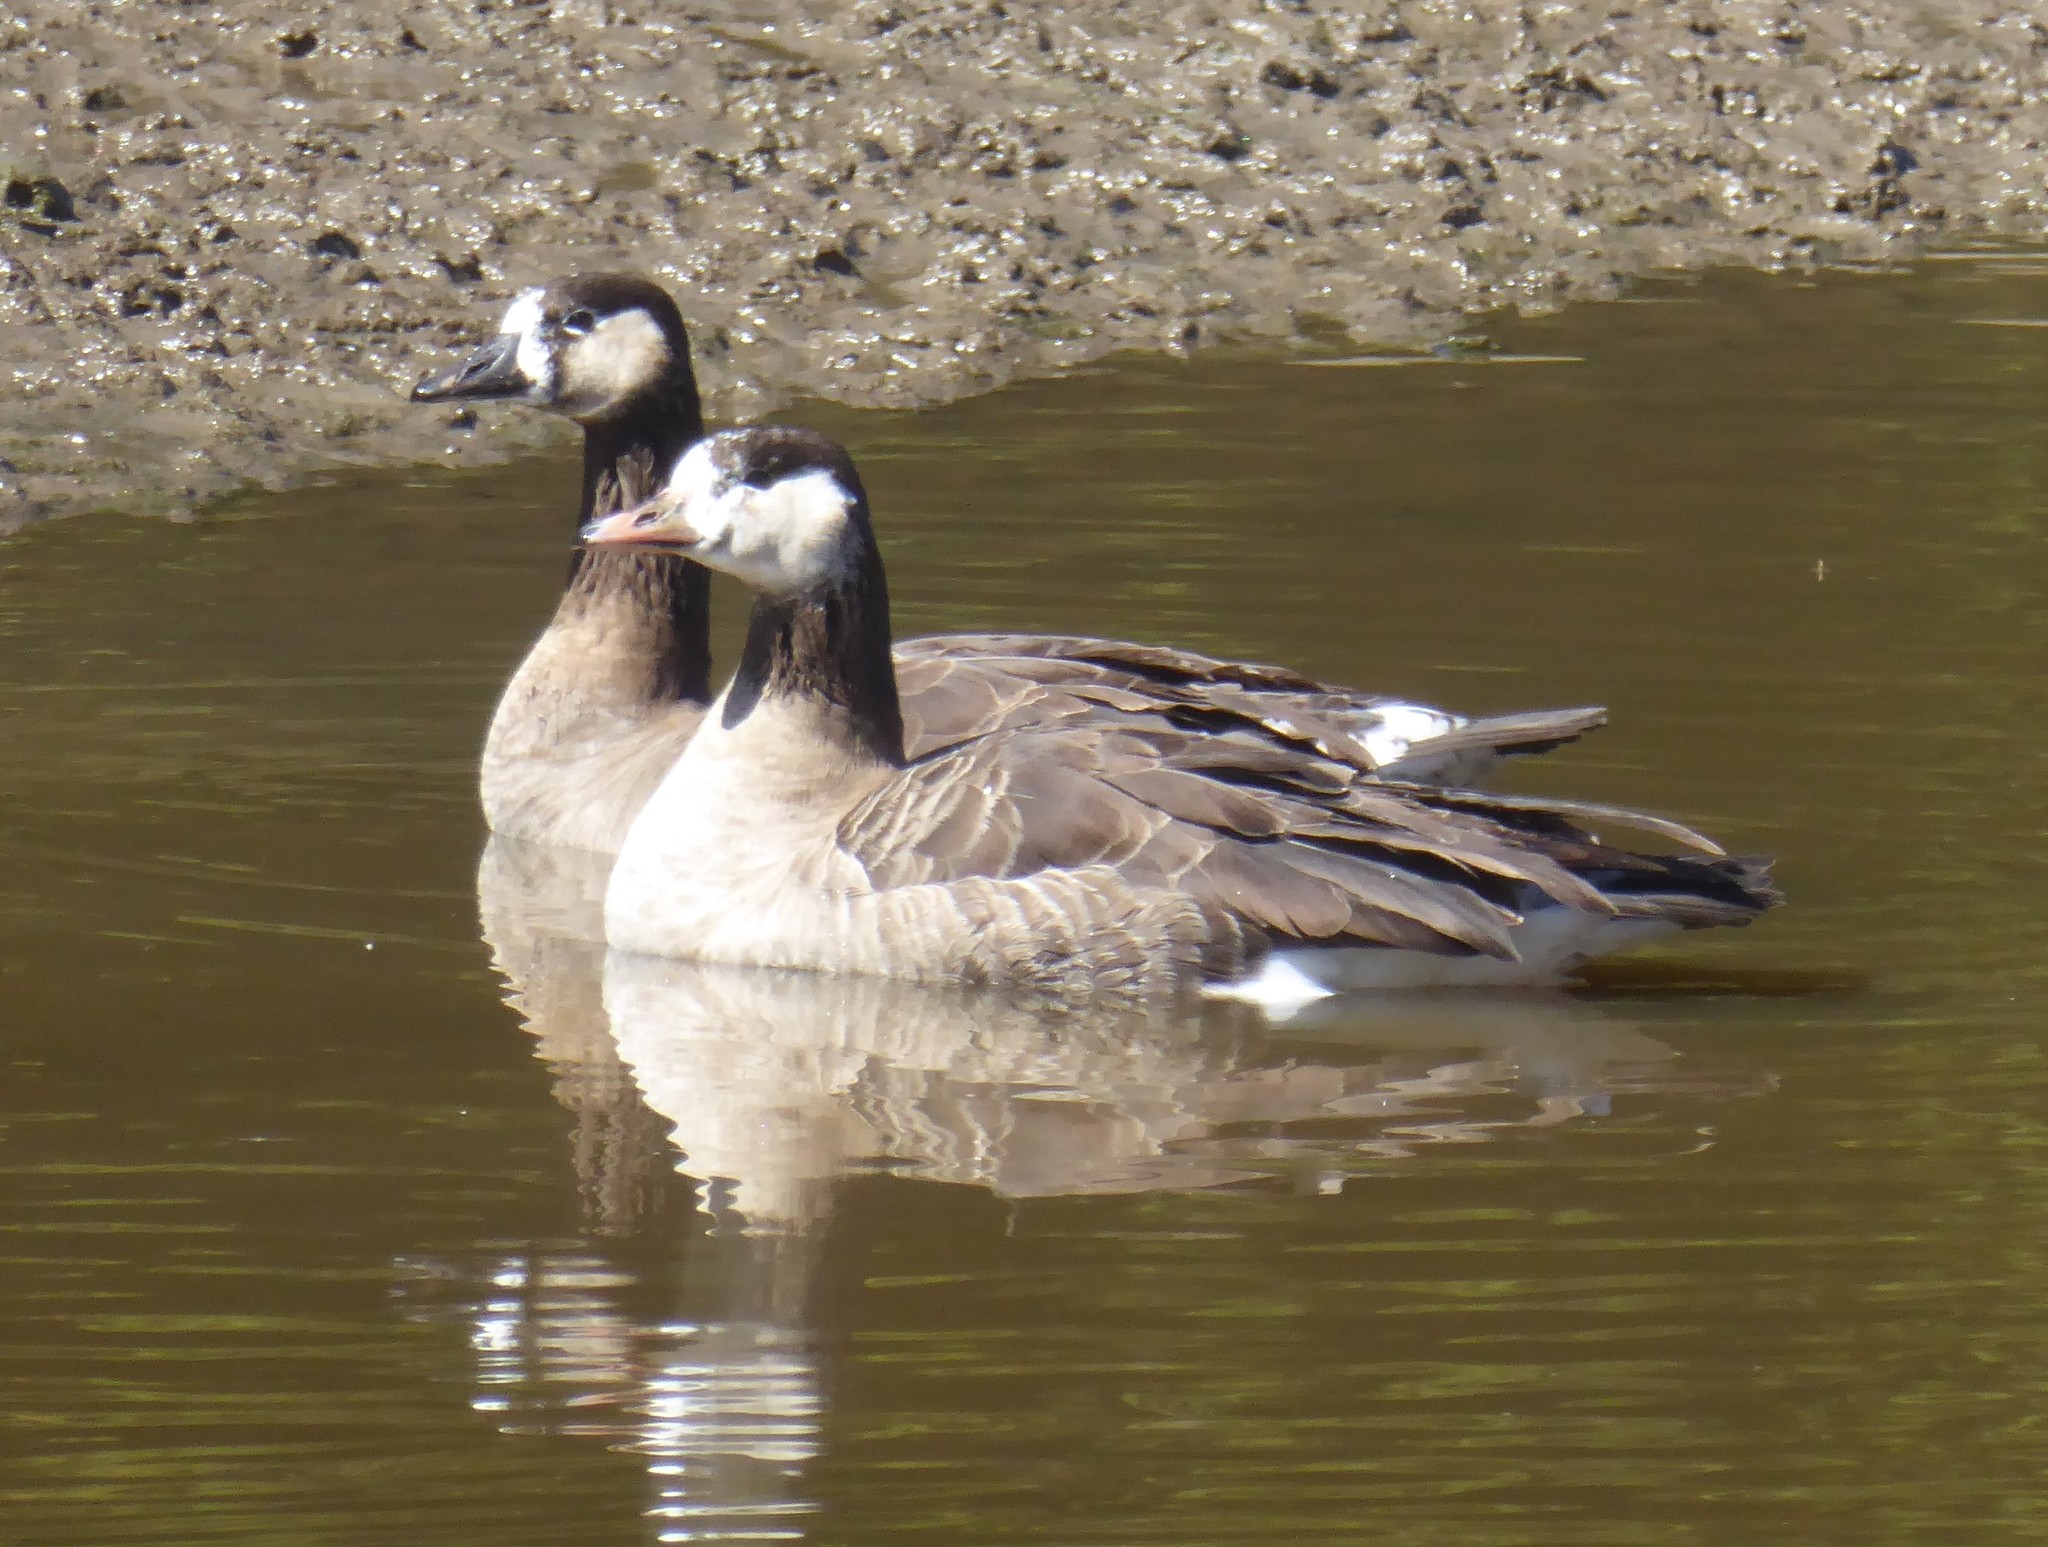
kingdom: Animalia
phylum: Chordata
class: Aves
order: Anseriformes
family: Anatidae
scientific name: Anatidae
